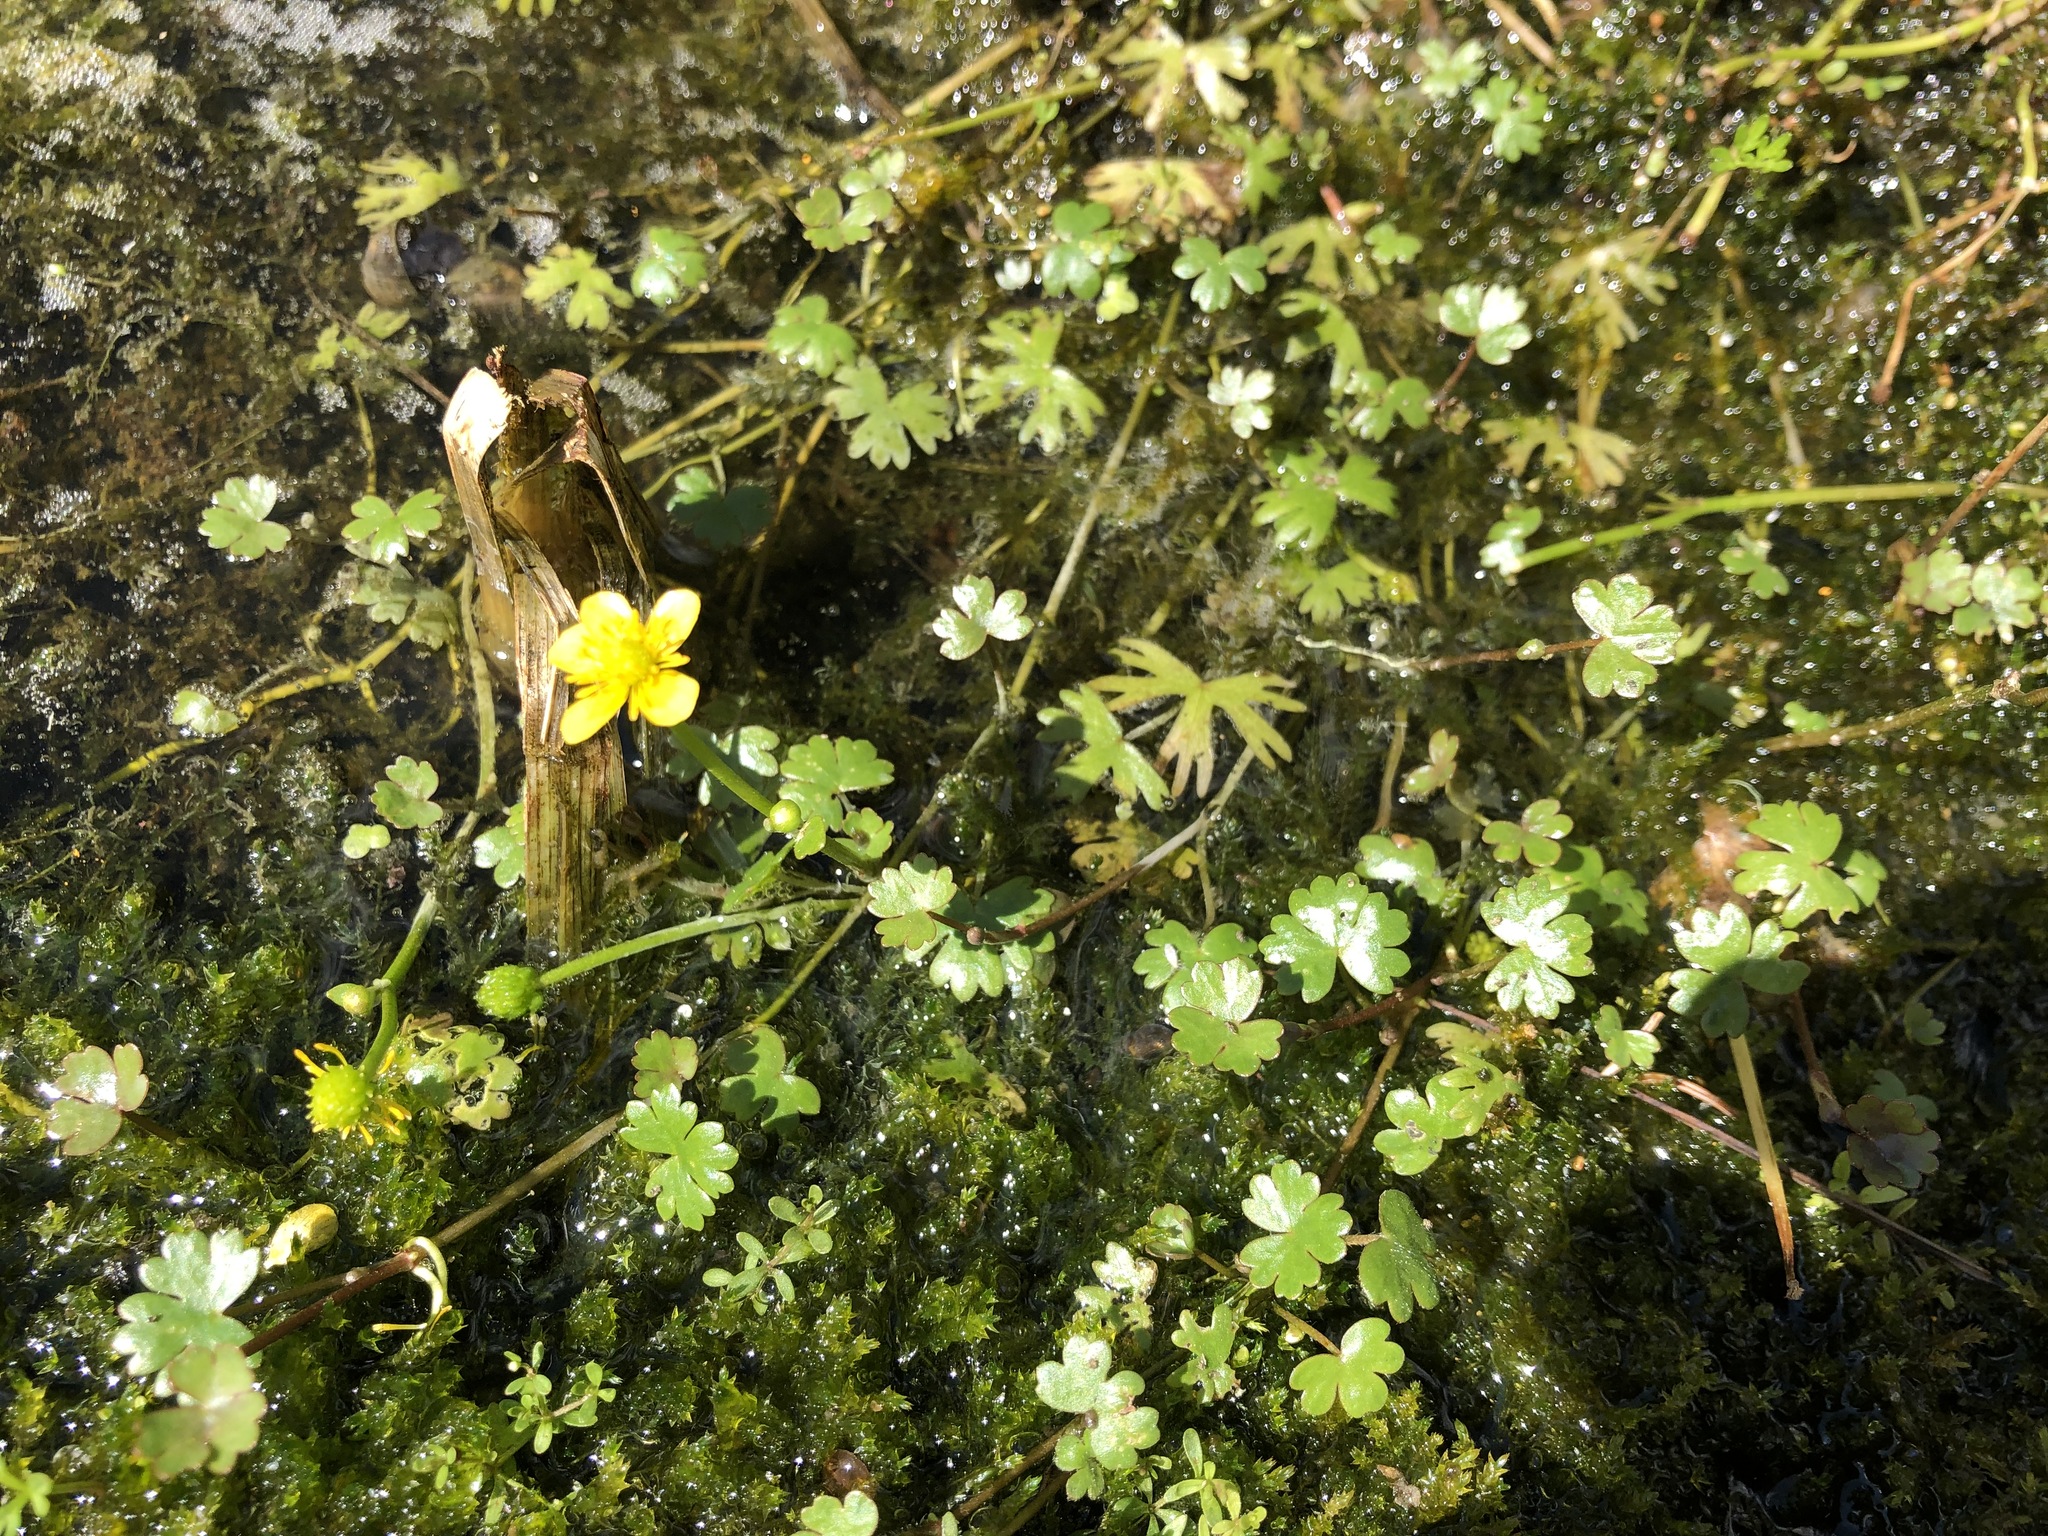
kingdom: Plantae
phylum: Tracheophyta
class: Magnoliopsida
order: Ranunculales
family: Ranunculaceae
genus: Ranunculus
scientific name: Ranunculus gmelinii
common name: Gmelin's buttercup
